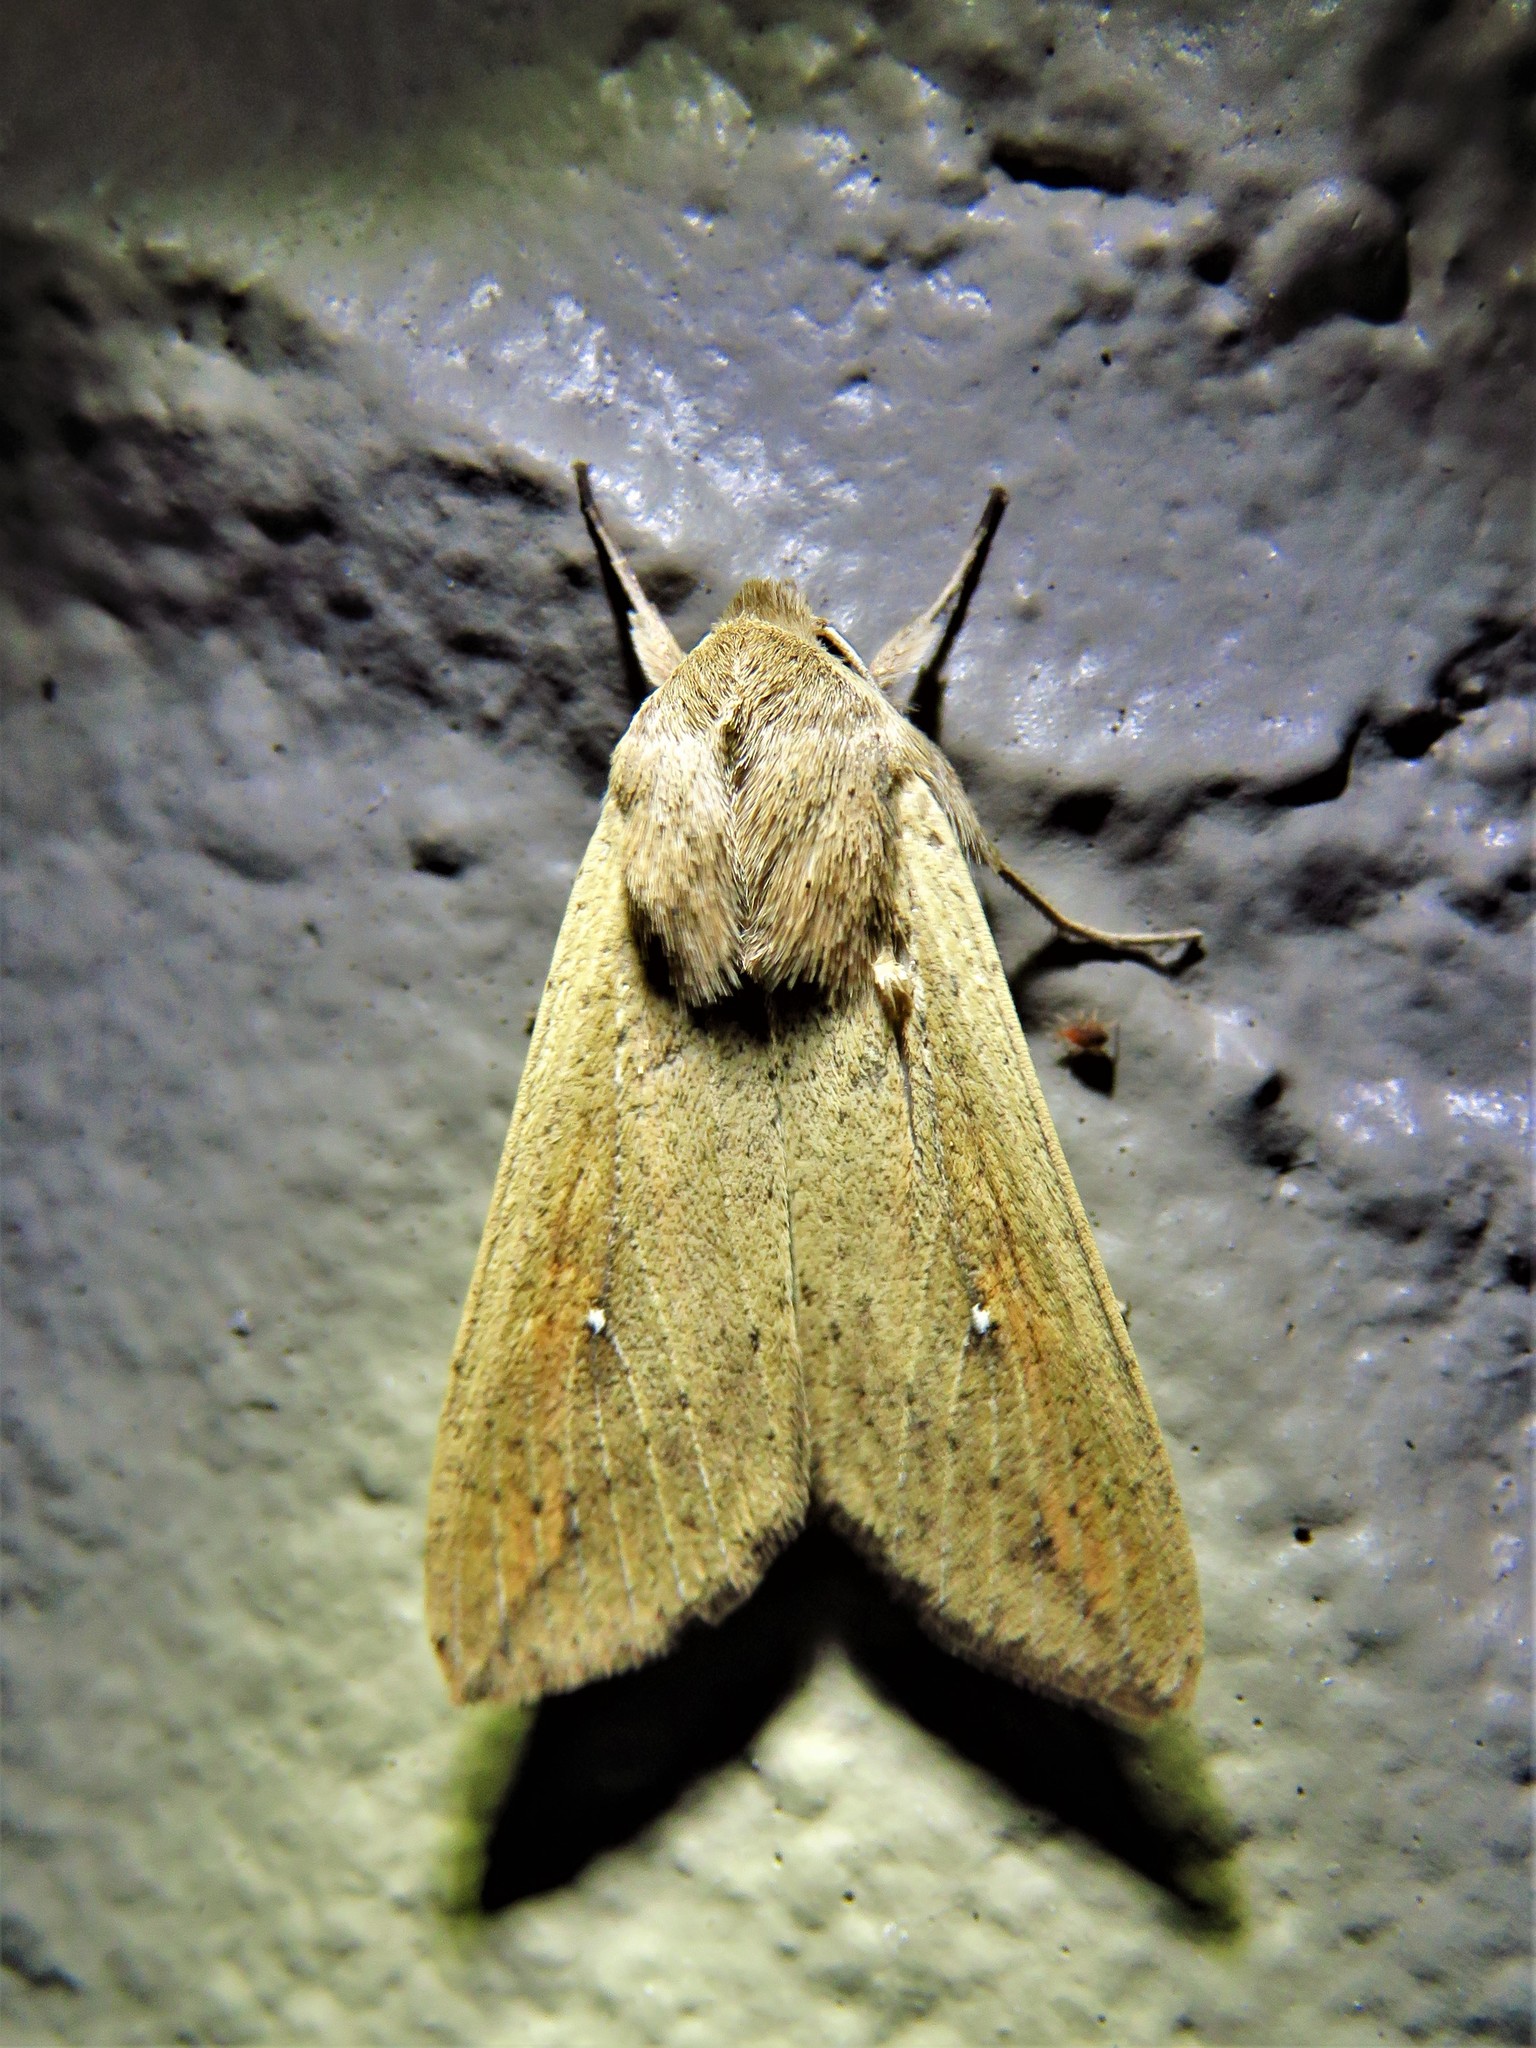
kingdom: Animalia
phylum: Arthropoda
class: Insecta
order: Lepidoptera
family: Noctuidae
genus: Mythimna
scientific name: Mythimna unipuncta
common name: White-speck
